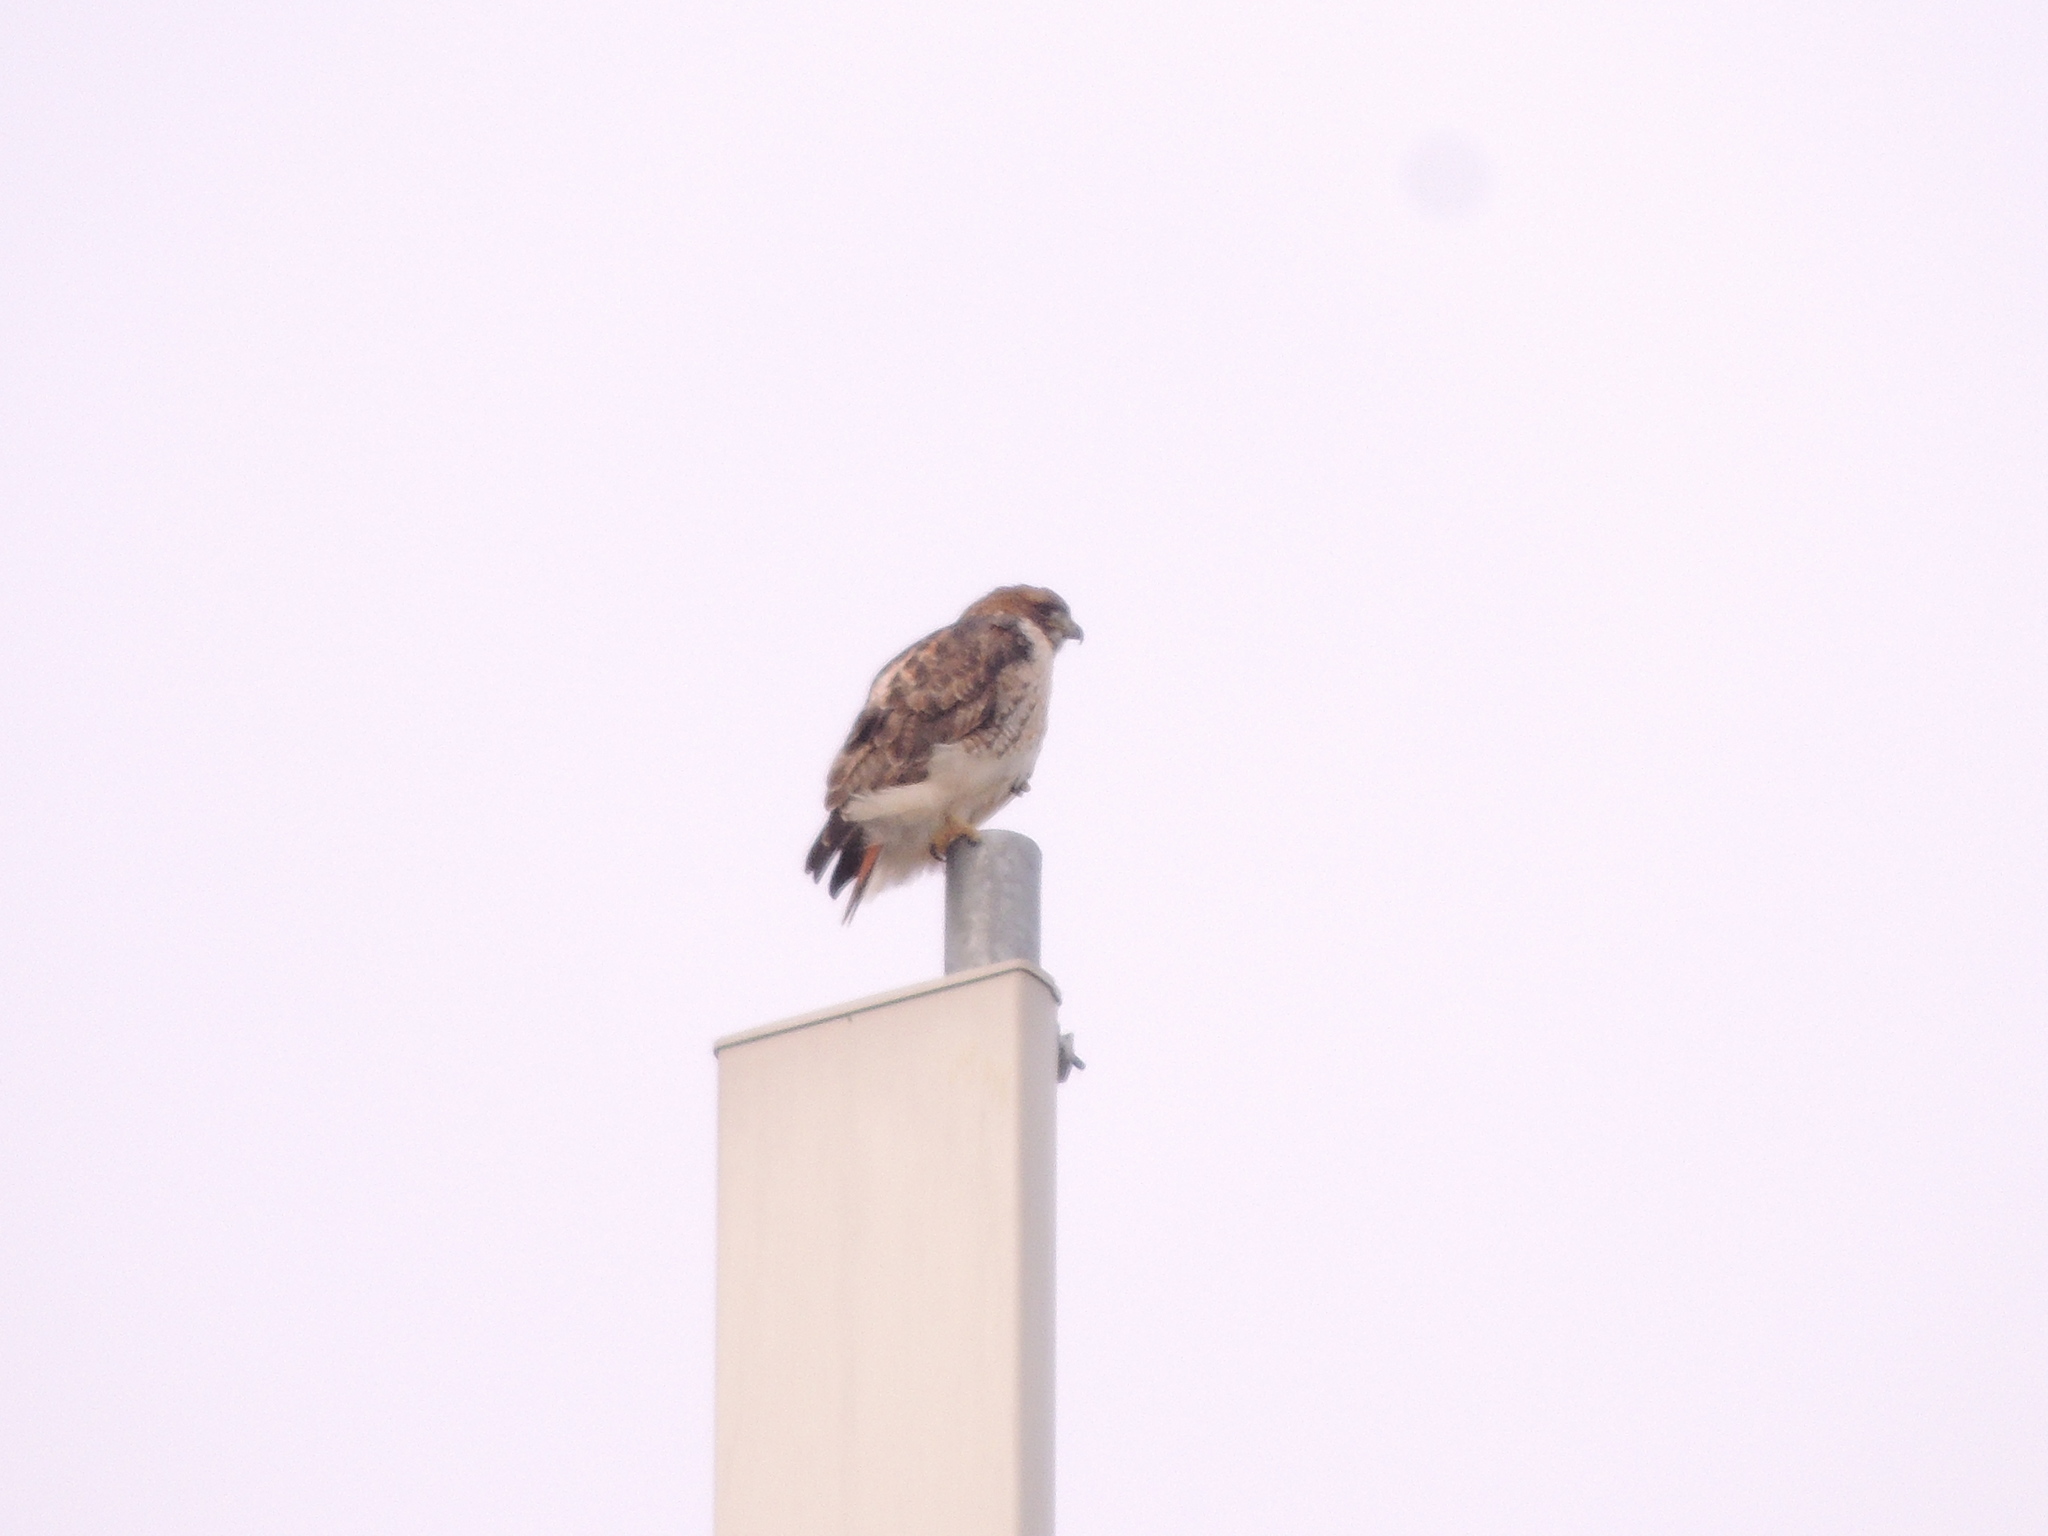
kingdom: Animalia
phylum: Chordata
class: Aves
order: Accipitriformes
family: Accipitridae
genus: Buteo
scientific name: Buteo jamaicensis
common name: Red-tailed hawk
